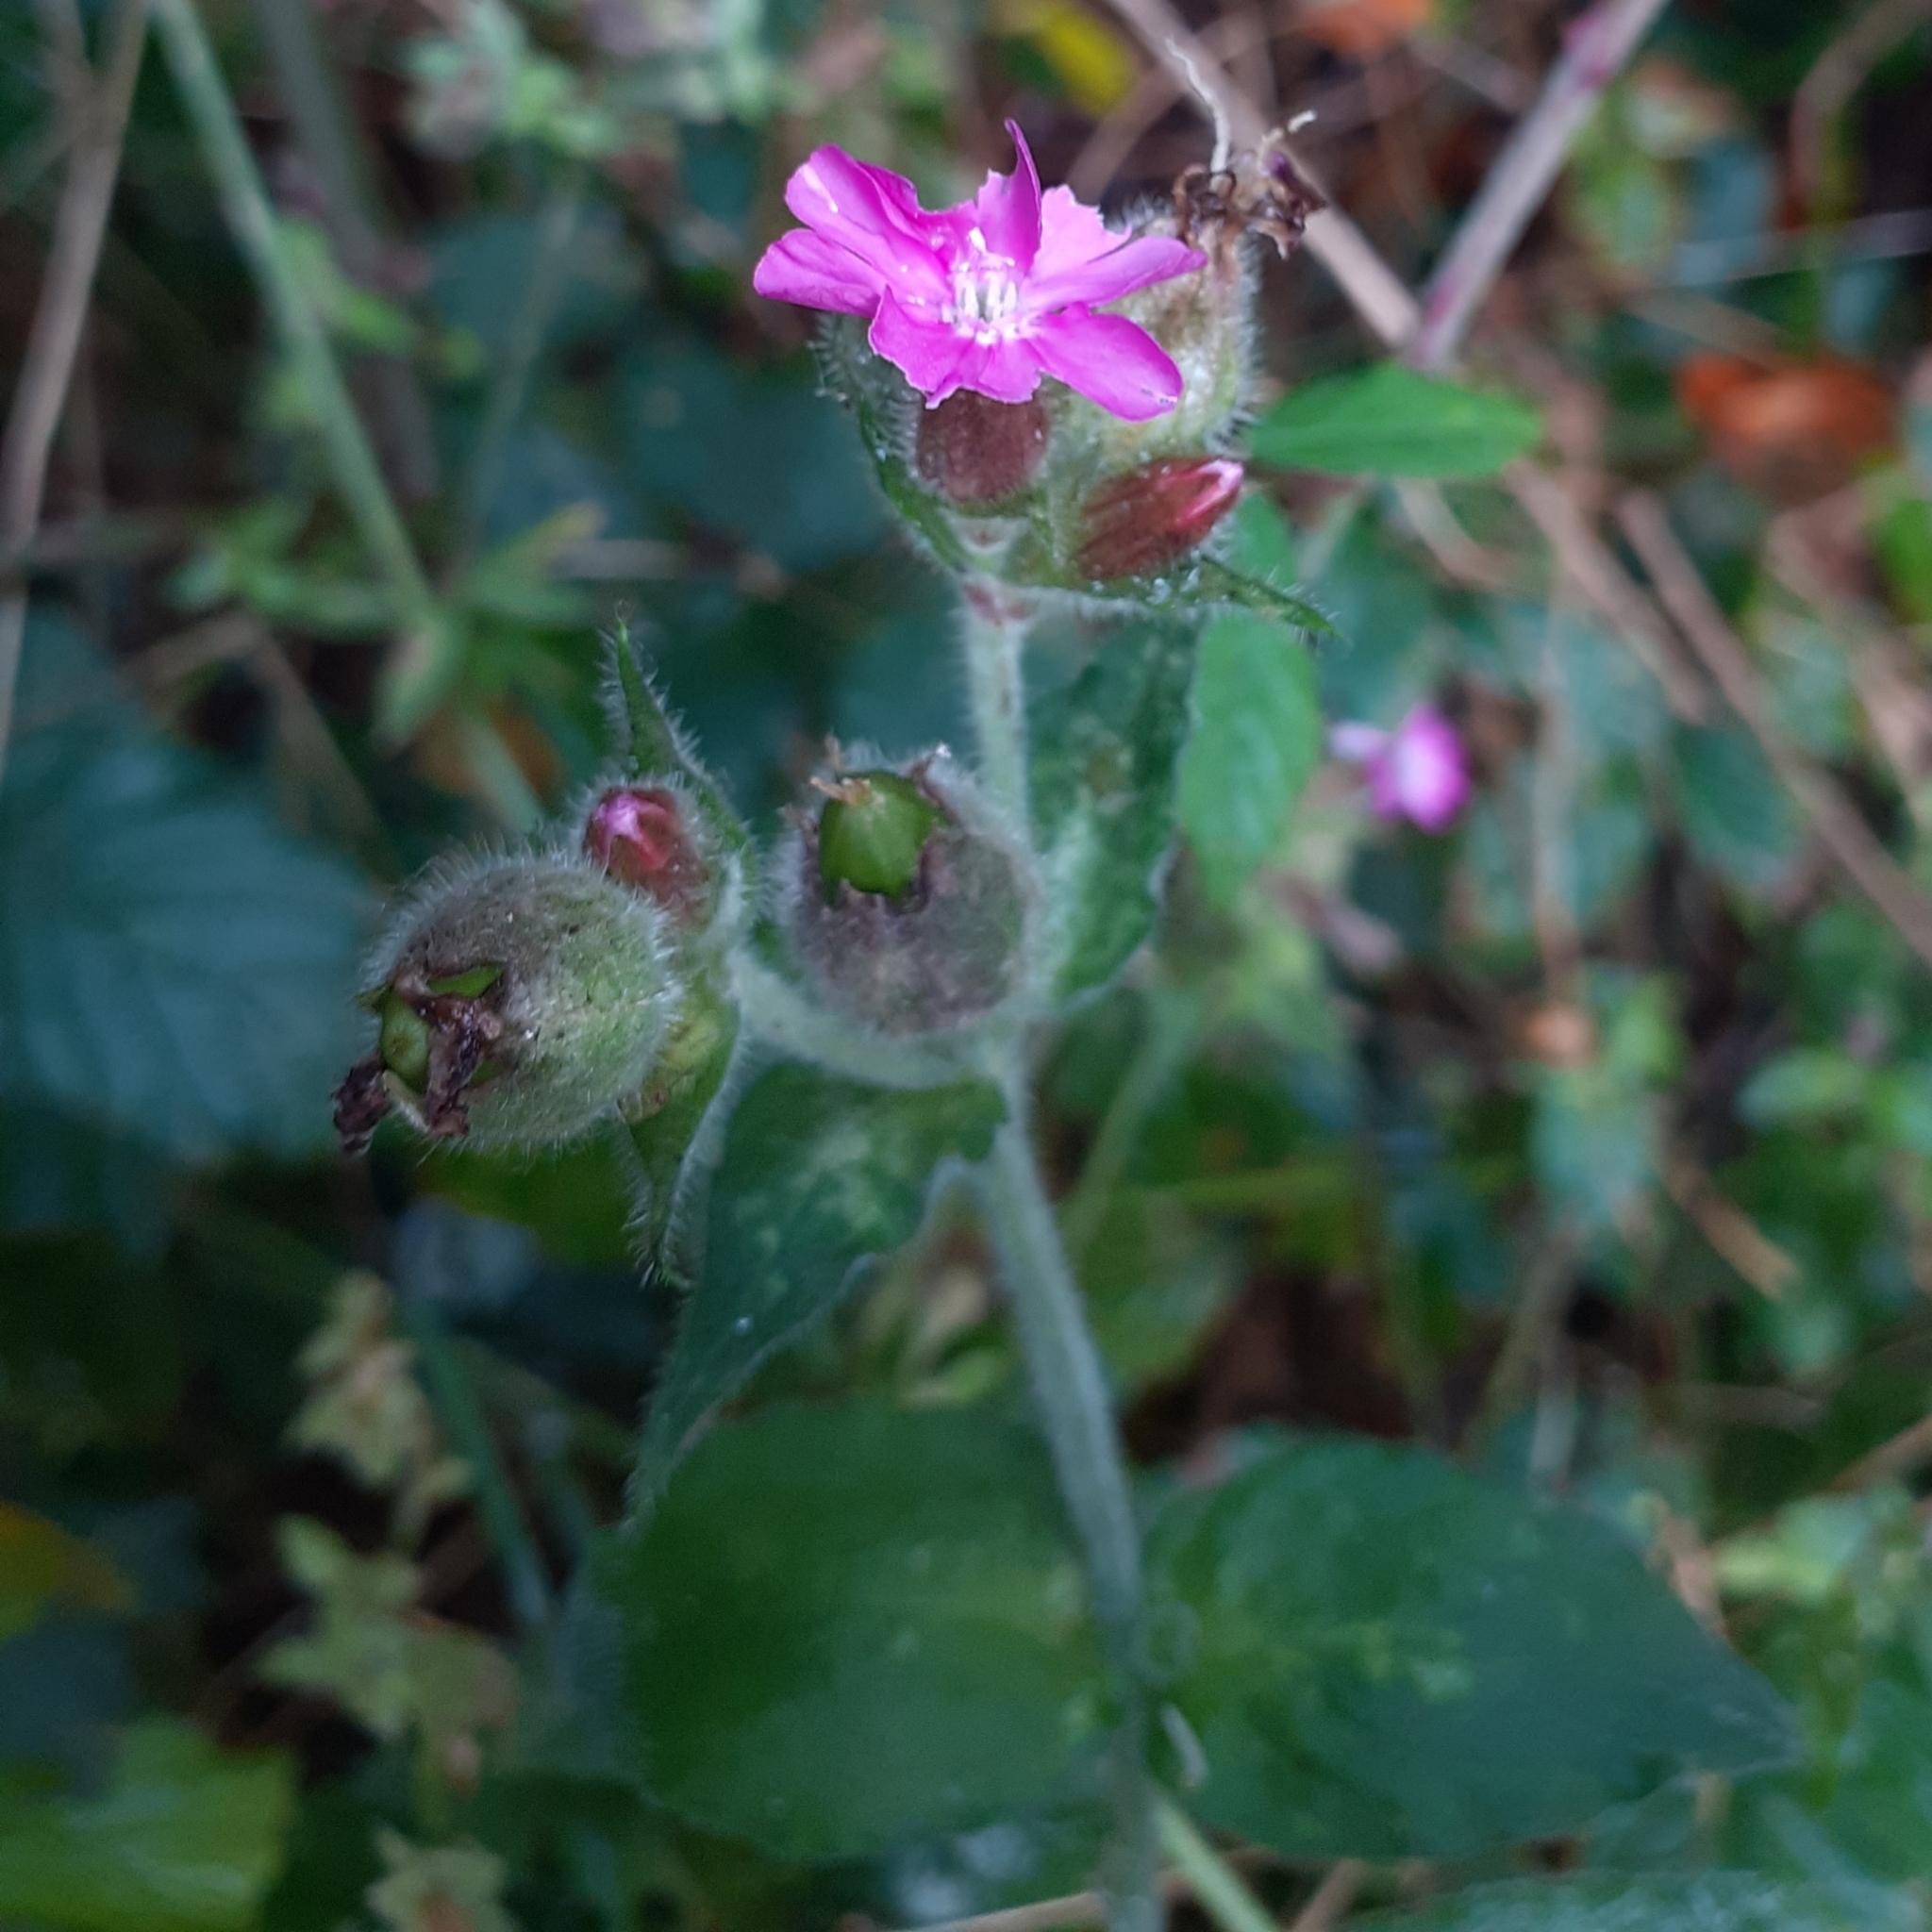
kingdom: Plantae
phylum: Tracheophyta
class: Magnoliopsida
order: Caryophyllales
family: Caryophyllaceae
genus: Silene
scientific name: Silene dioica
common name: Red campion
